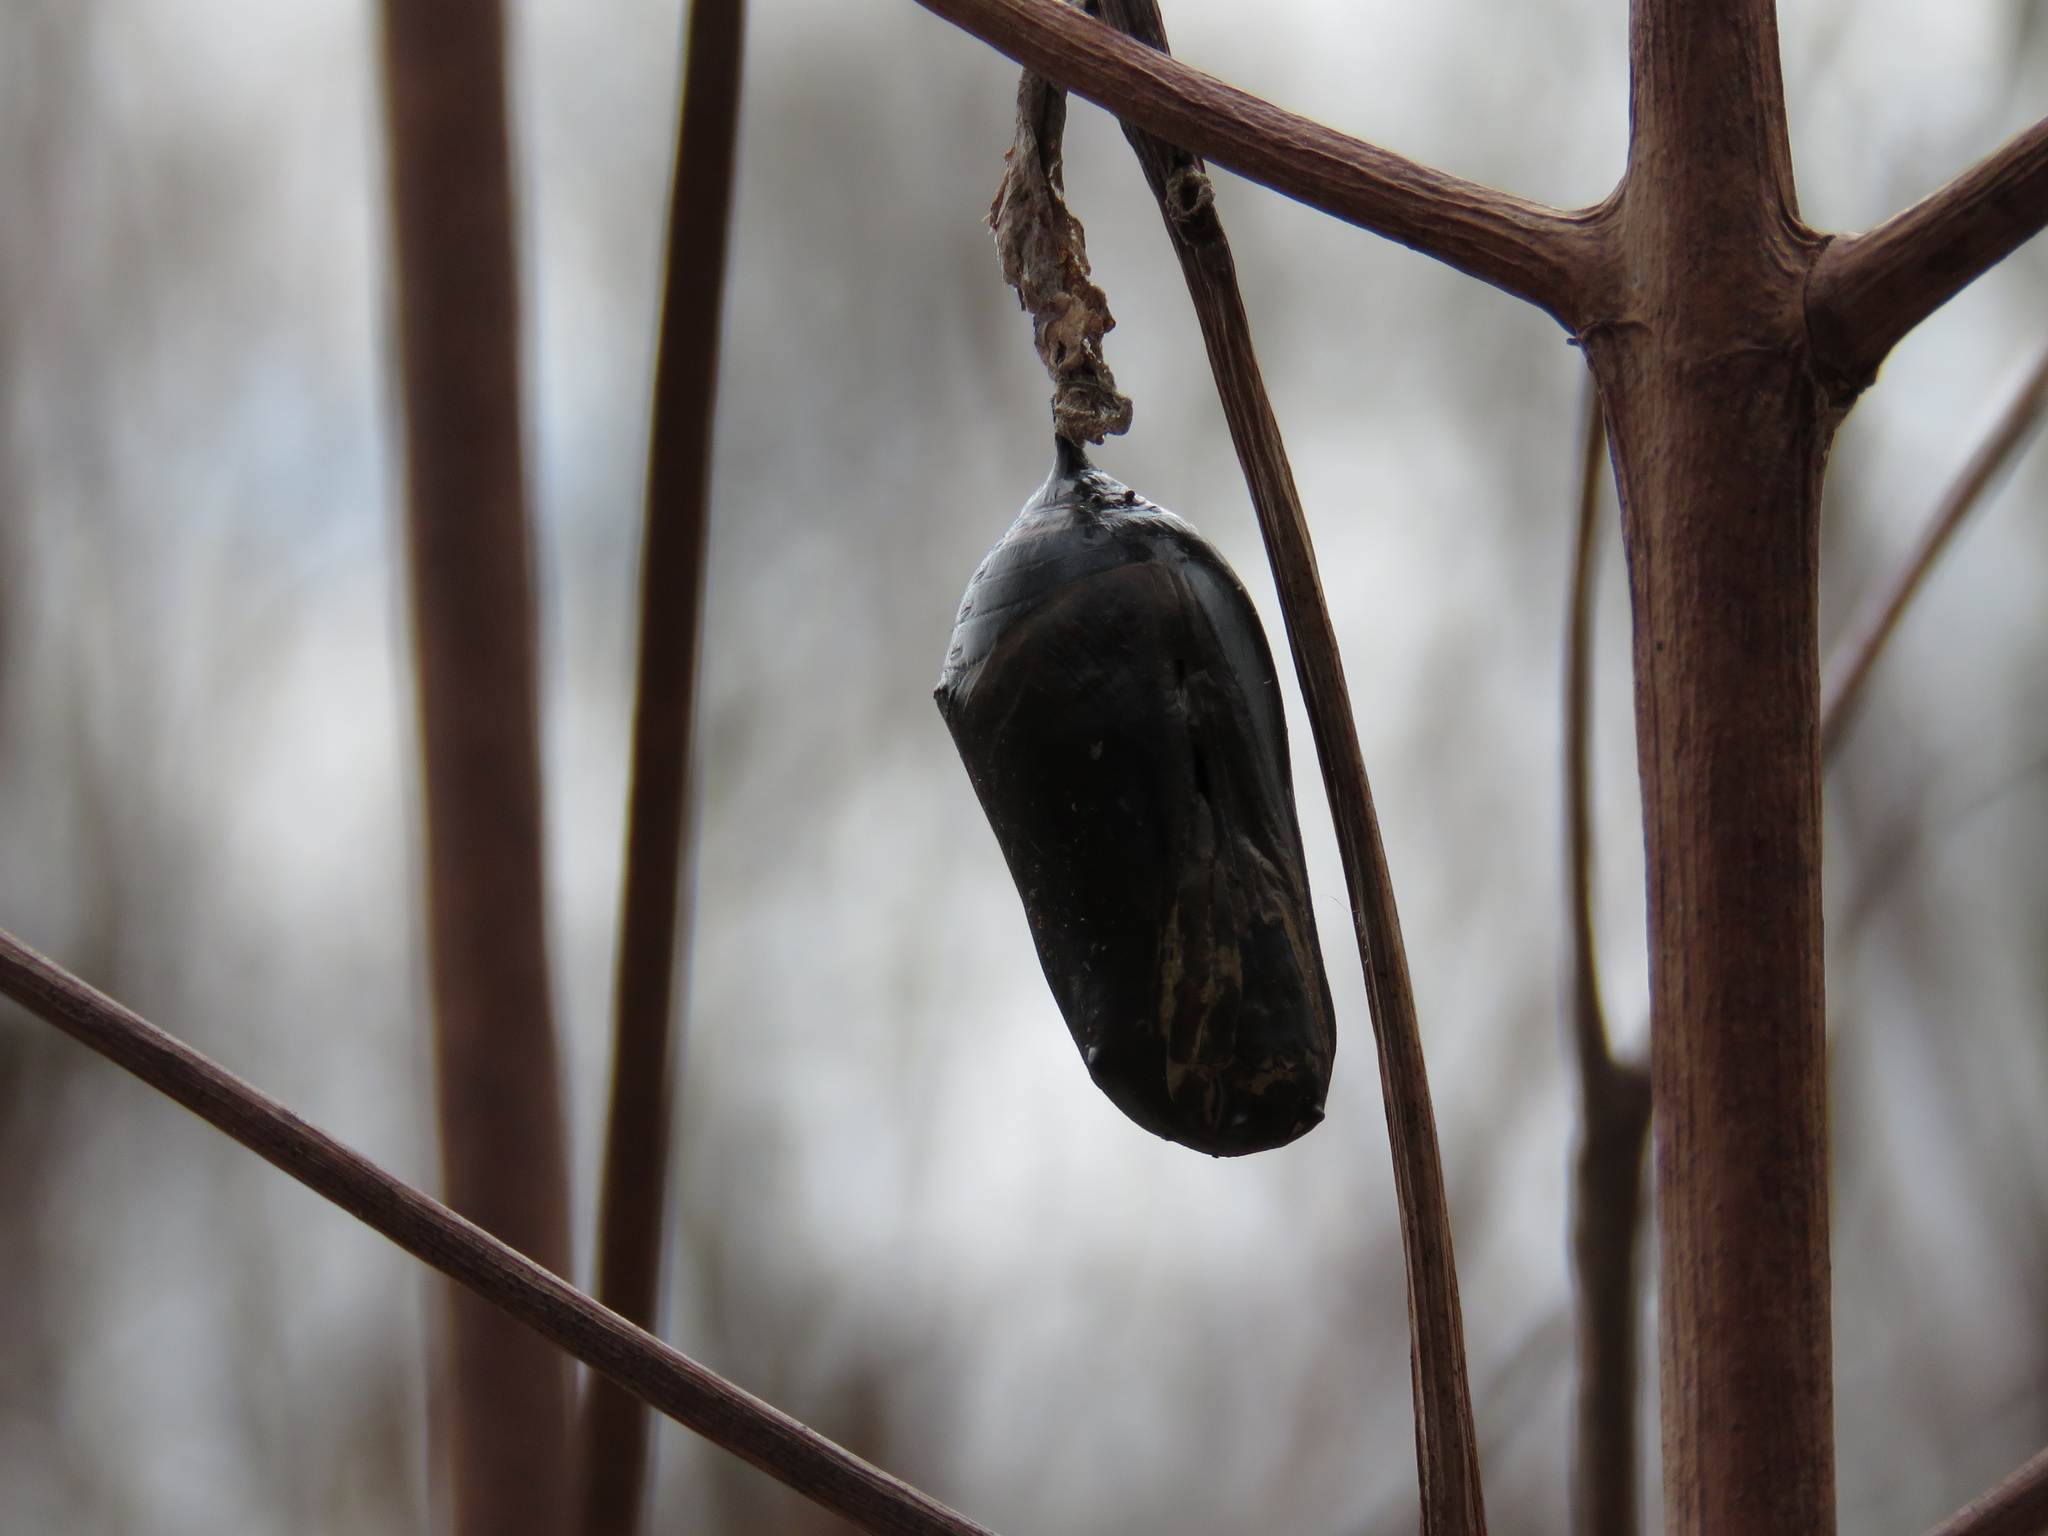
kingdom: Animalia
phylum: Arthropoda
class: Insecta
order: Lepidoptera
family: Nymphalidae
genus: Danaus
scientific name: Danaus plexippus
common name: Monarch
